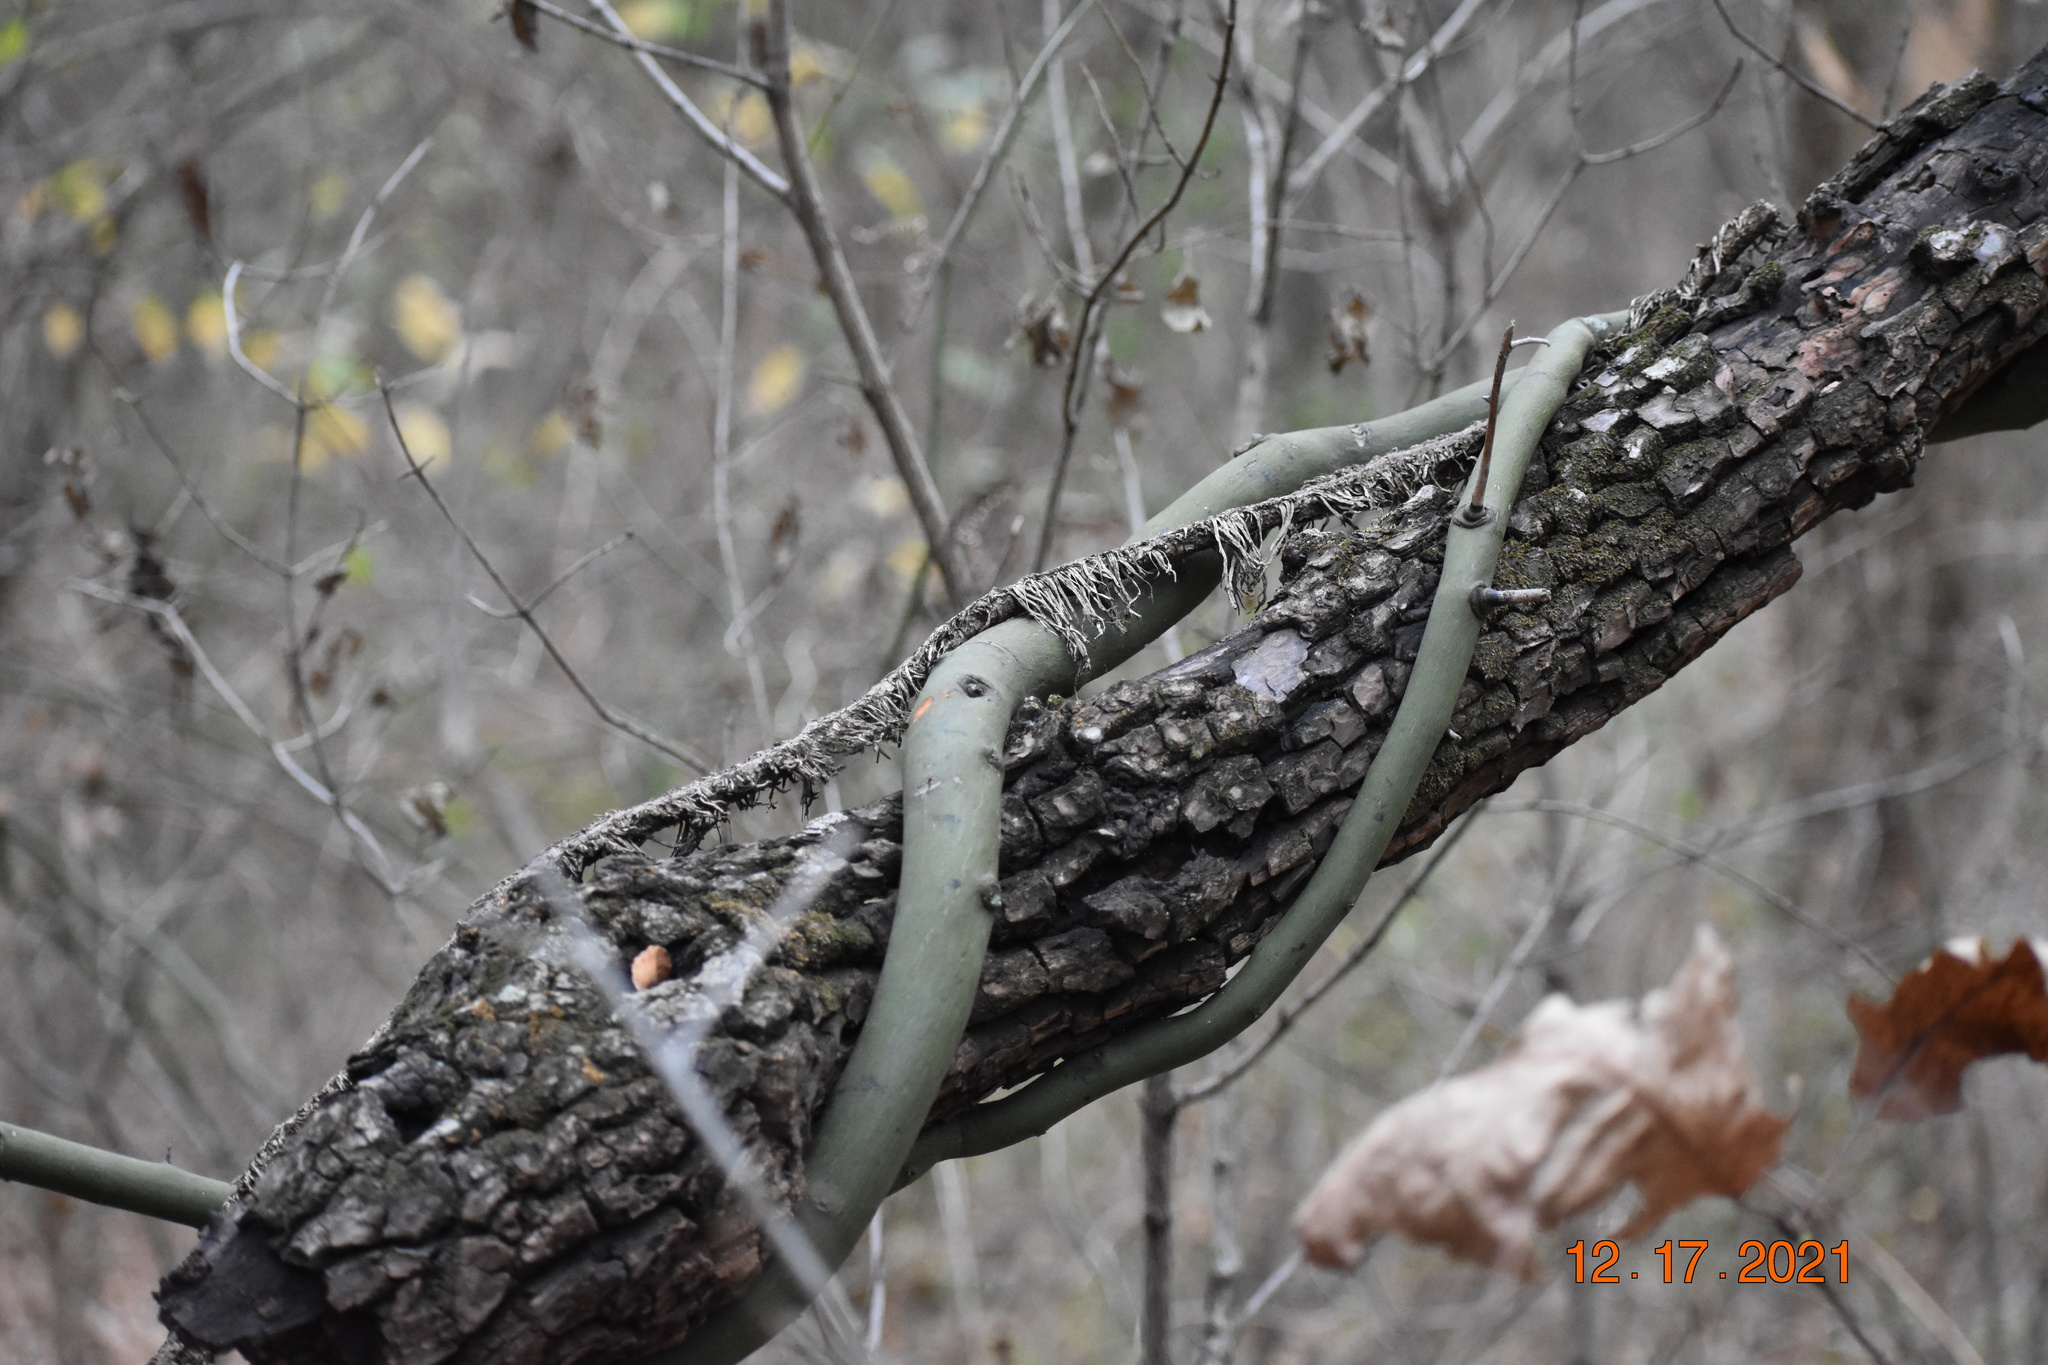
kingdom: Plantae
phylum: Tracheophyta
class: Magnoliopsida
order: Rosales
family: Rhamnaceae
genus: Berchemia
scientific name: Berchemia scandens
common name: Supplejack
